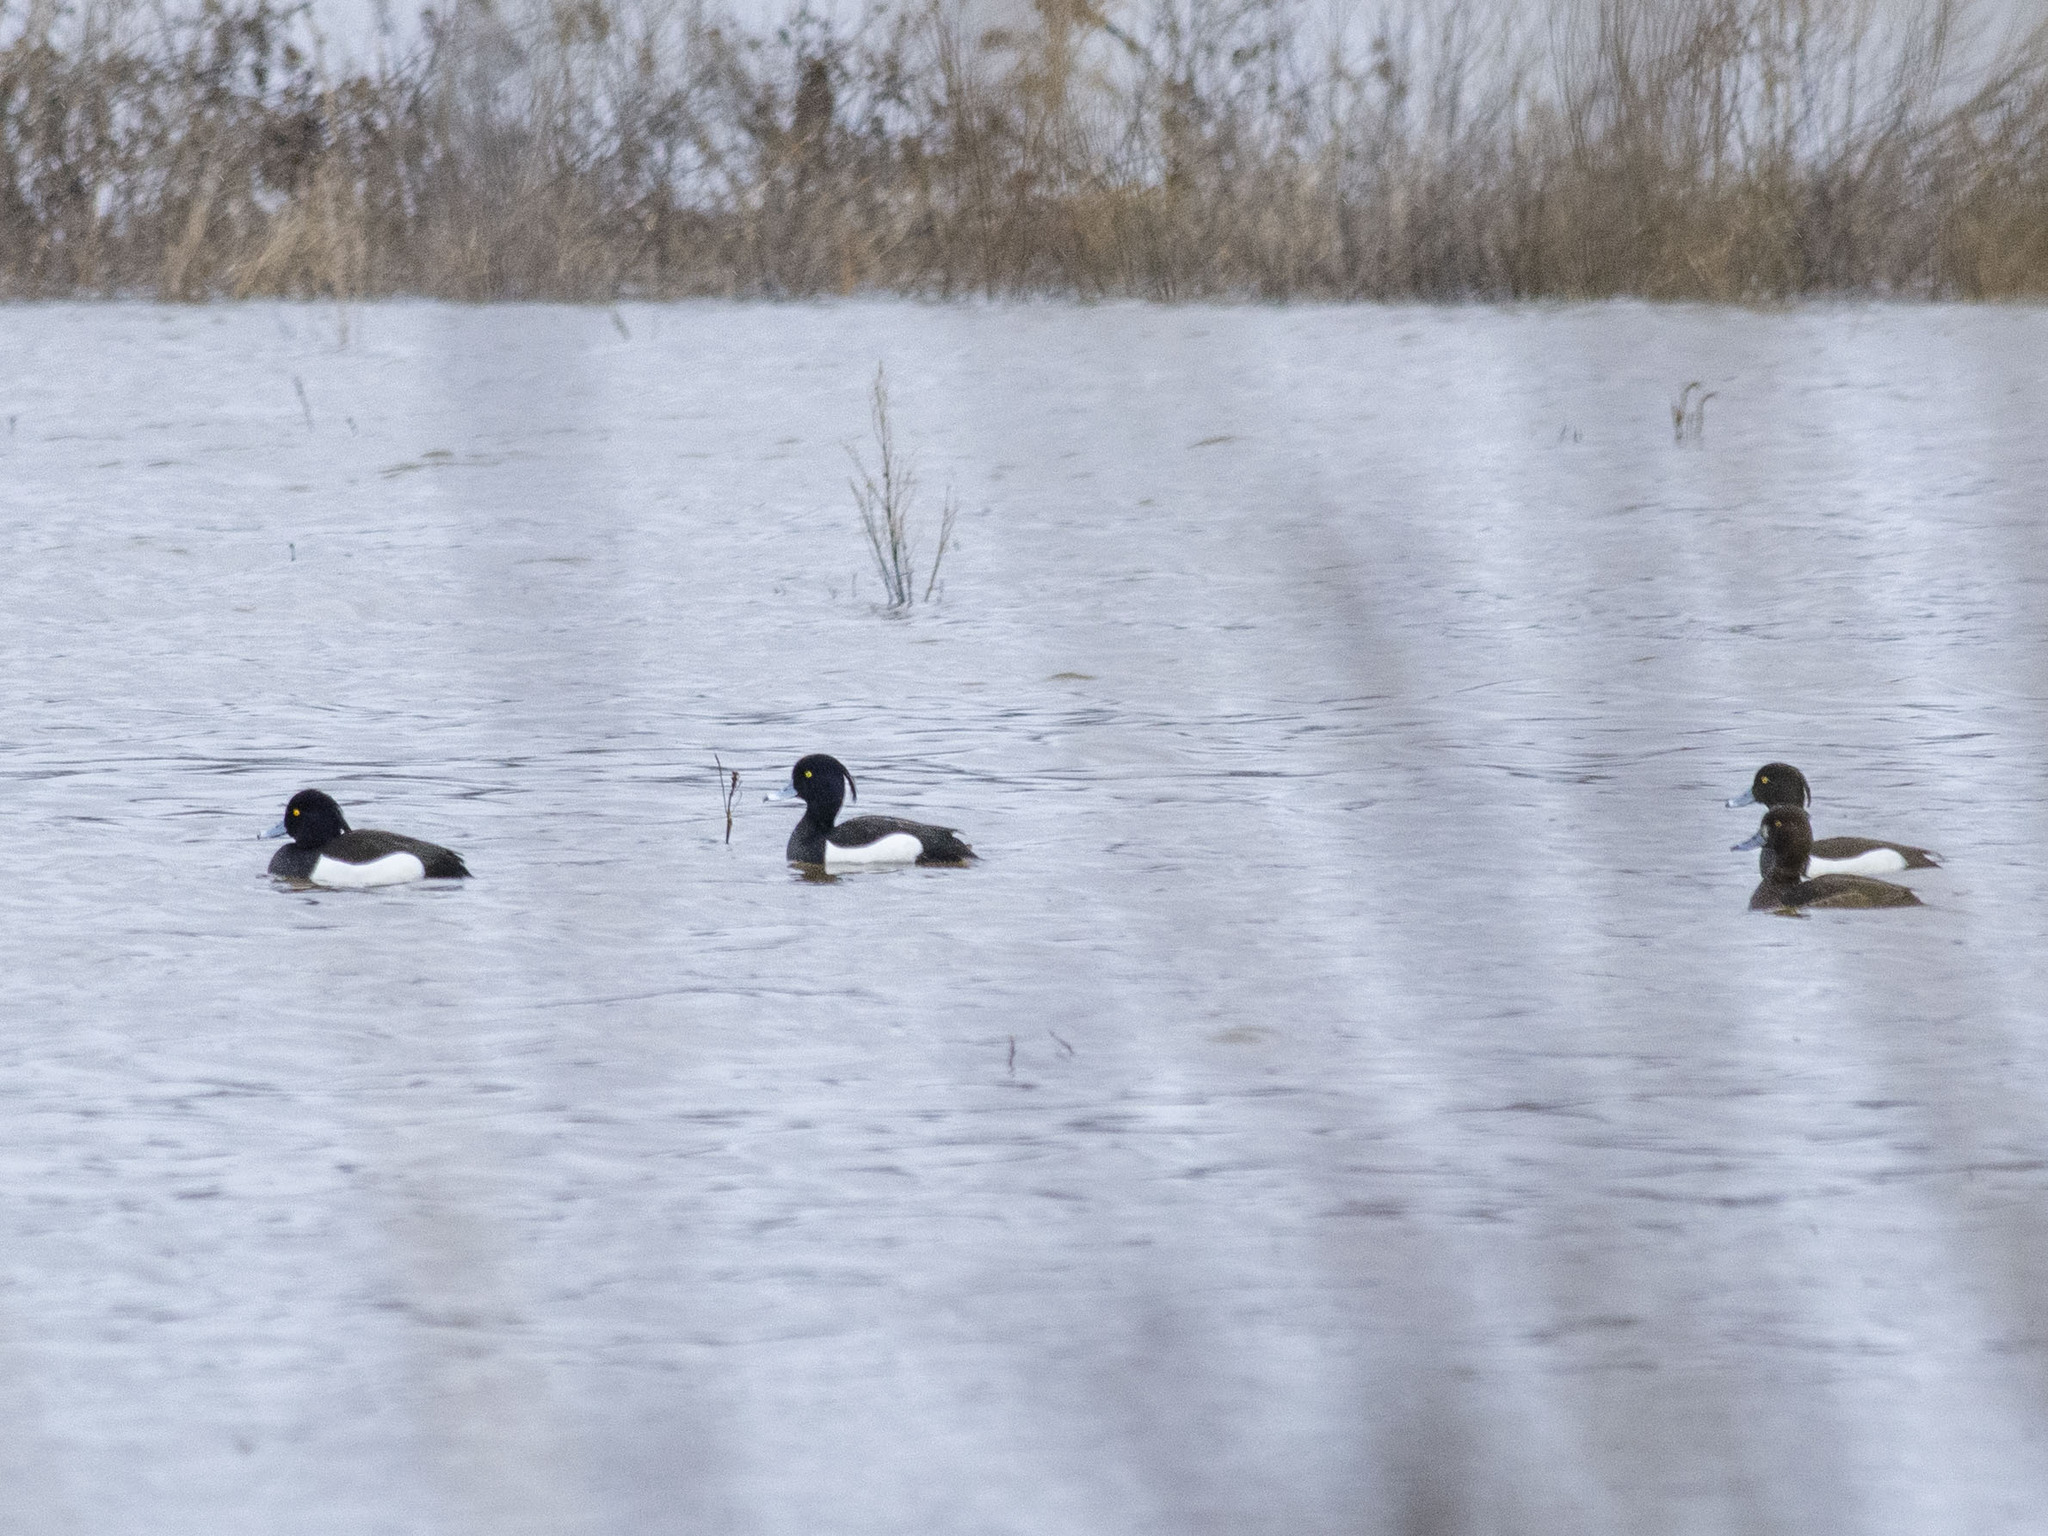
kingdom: Animalia
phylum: Chordata
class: Aves
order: Anseriformes
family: Anatidae
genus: Aythya
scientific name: Aythya fuligula
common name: Tufted duck
